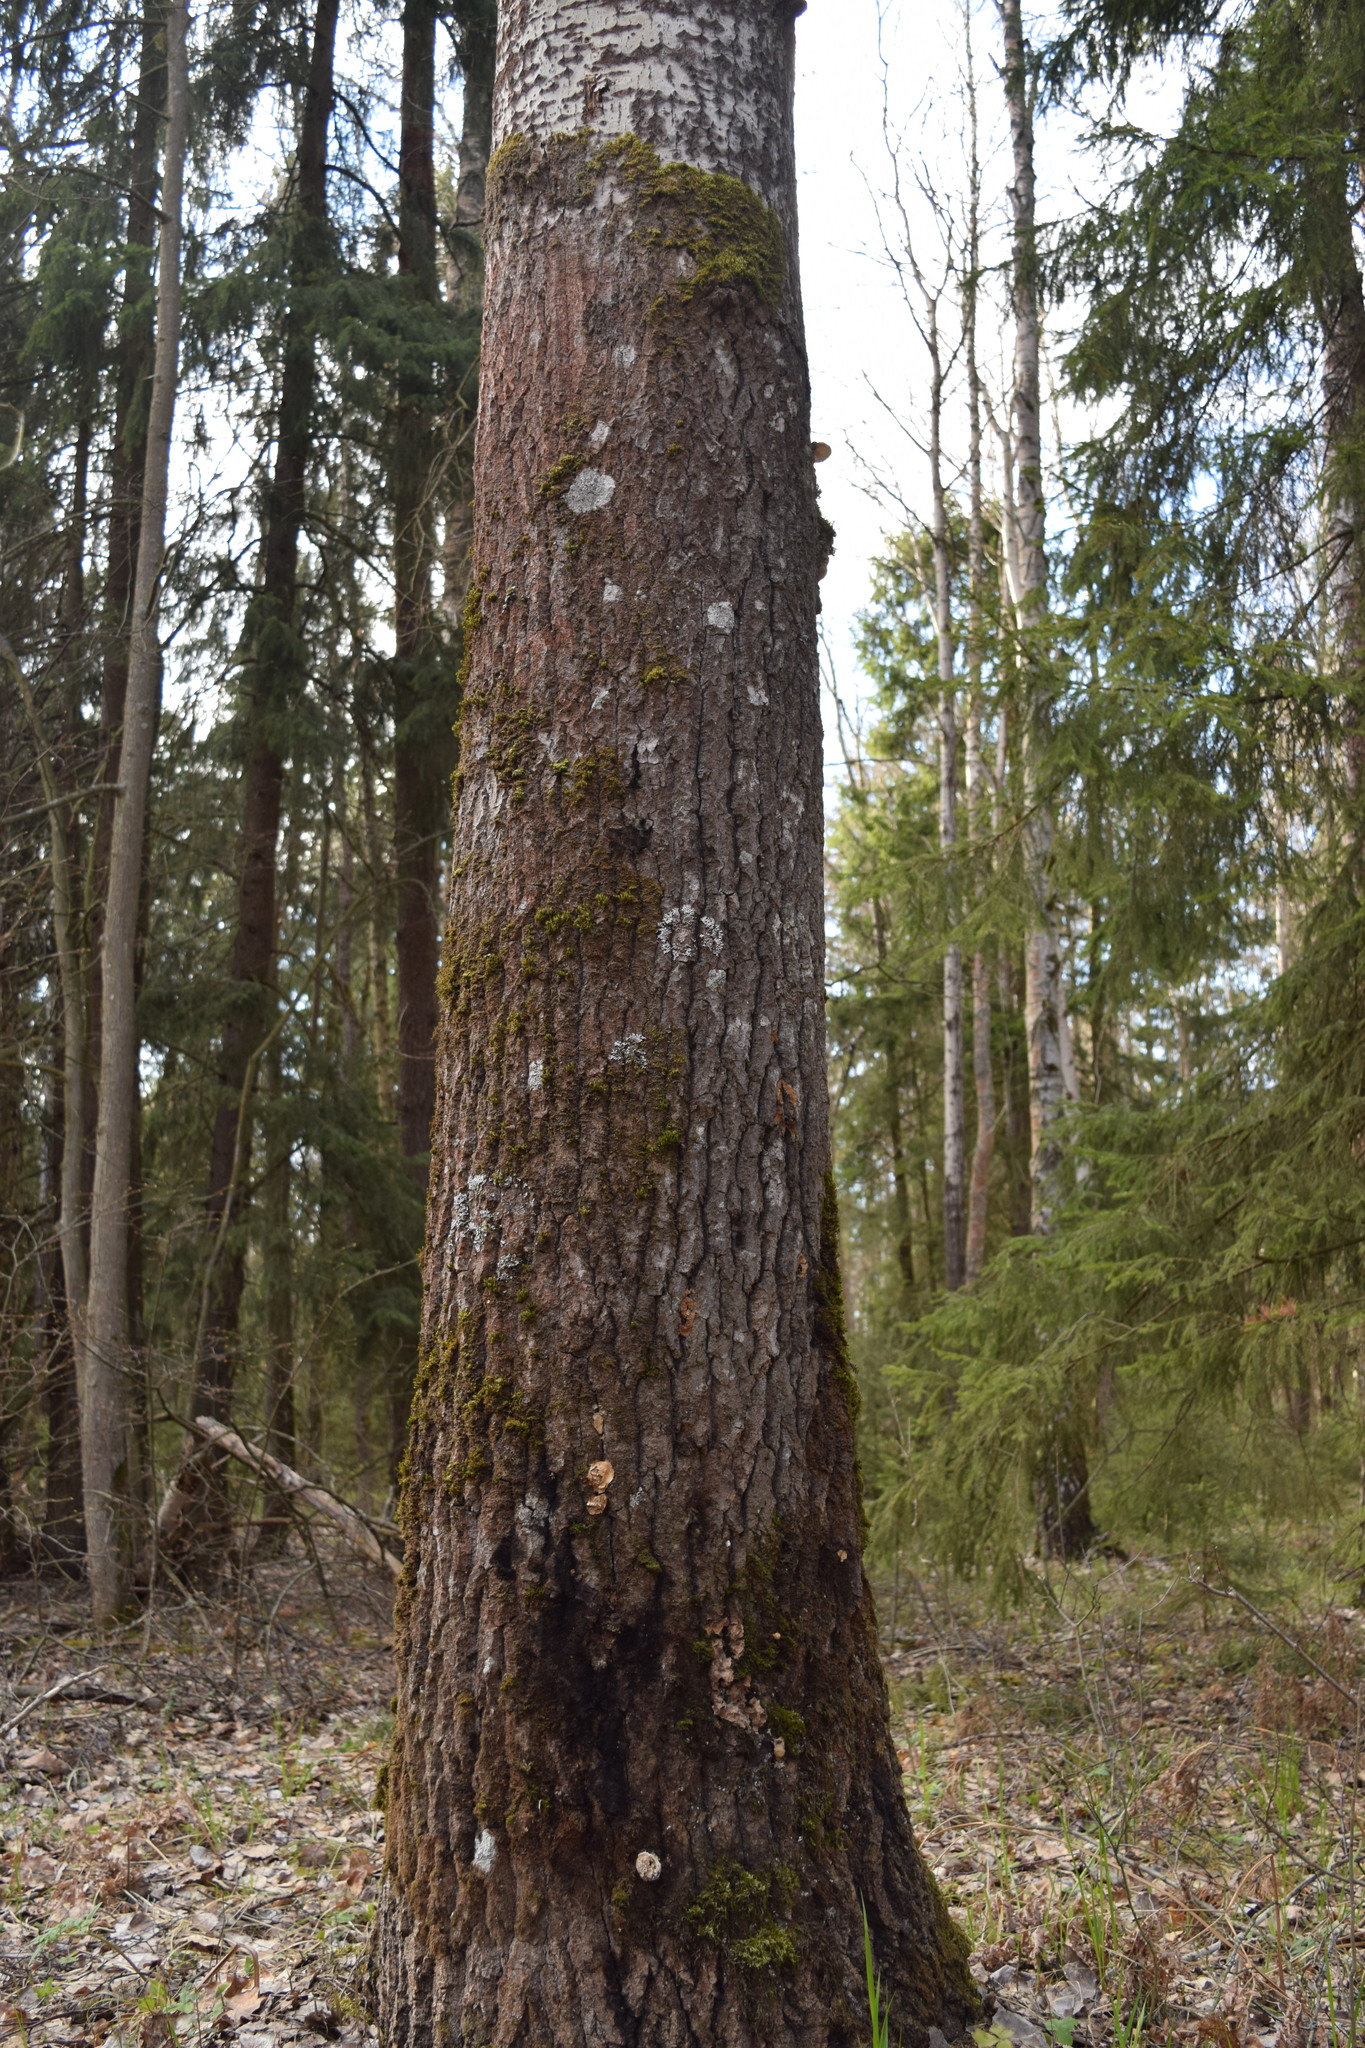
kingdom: Plantae
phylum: Tracheophyta
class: Magnoliopsida
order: Malpighiales
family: Salicaceae
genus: Populus
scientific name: Populus tremula
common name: European aspen
